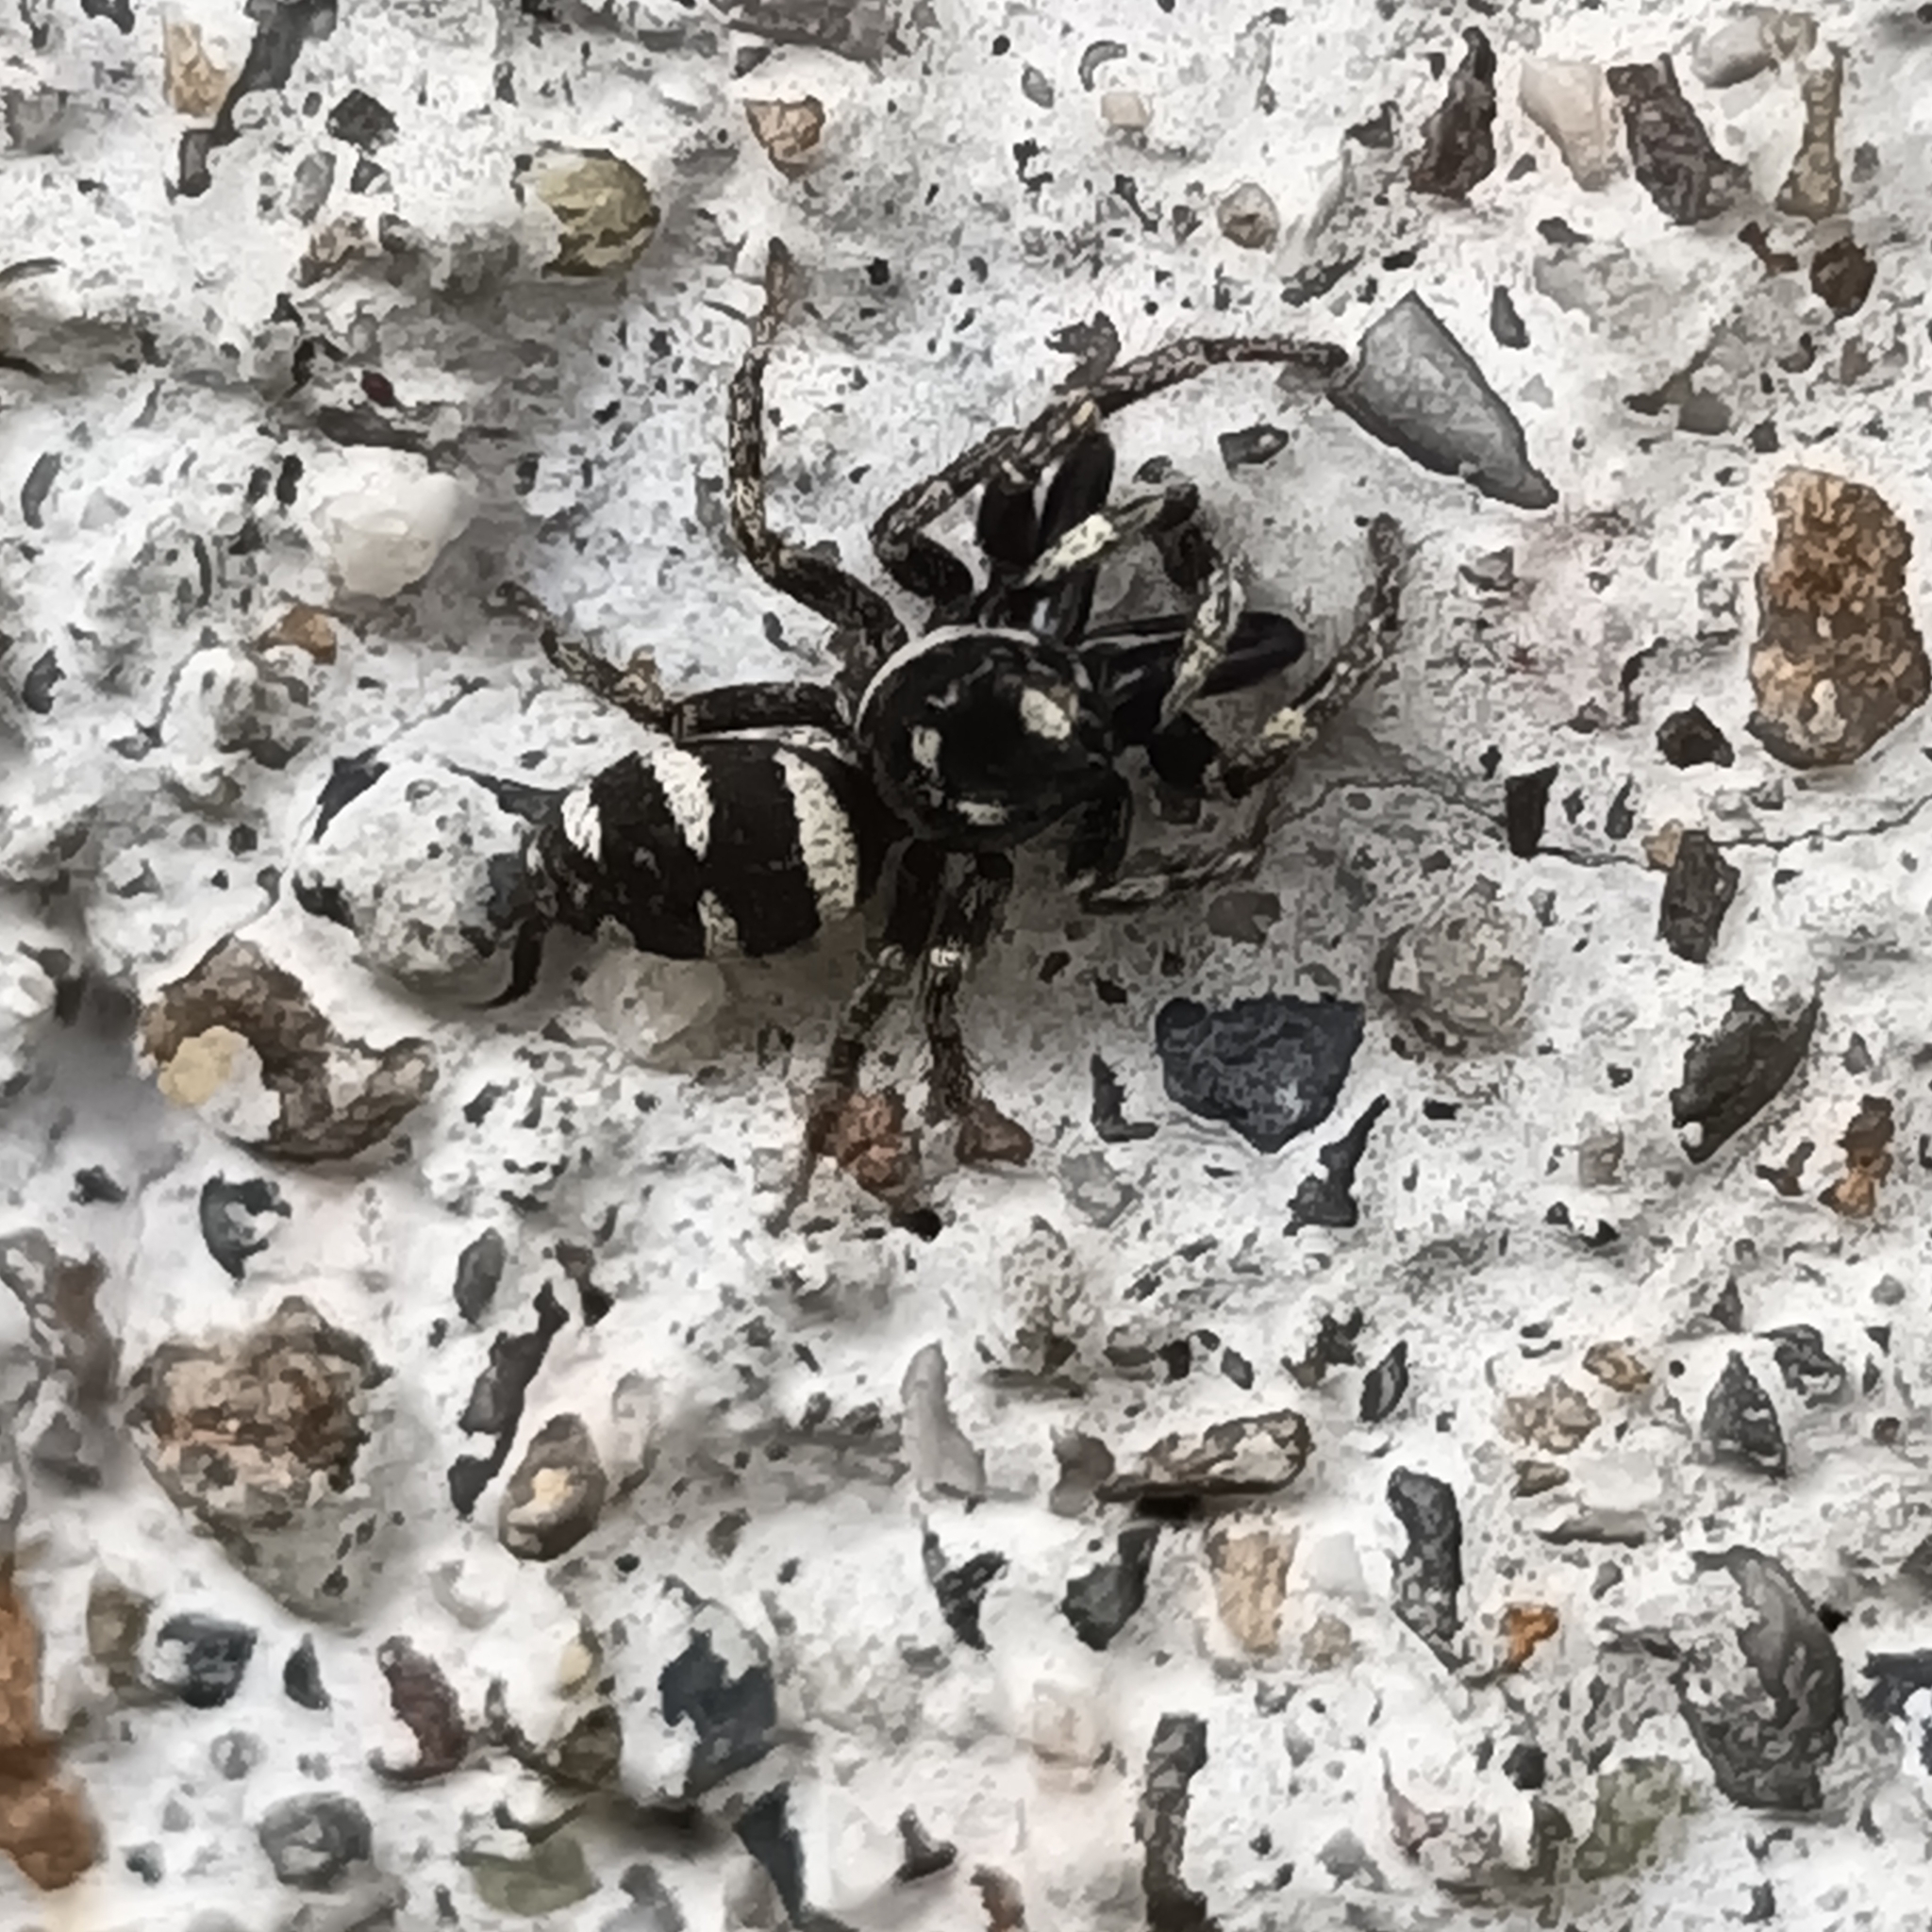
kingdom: Animalia
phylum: Arthropoda
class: Arachnida
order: Araneae
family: Salticidae
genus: Salticus
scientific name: Salticus scenicus
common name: Zebra jumper
